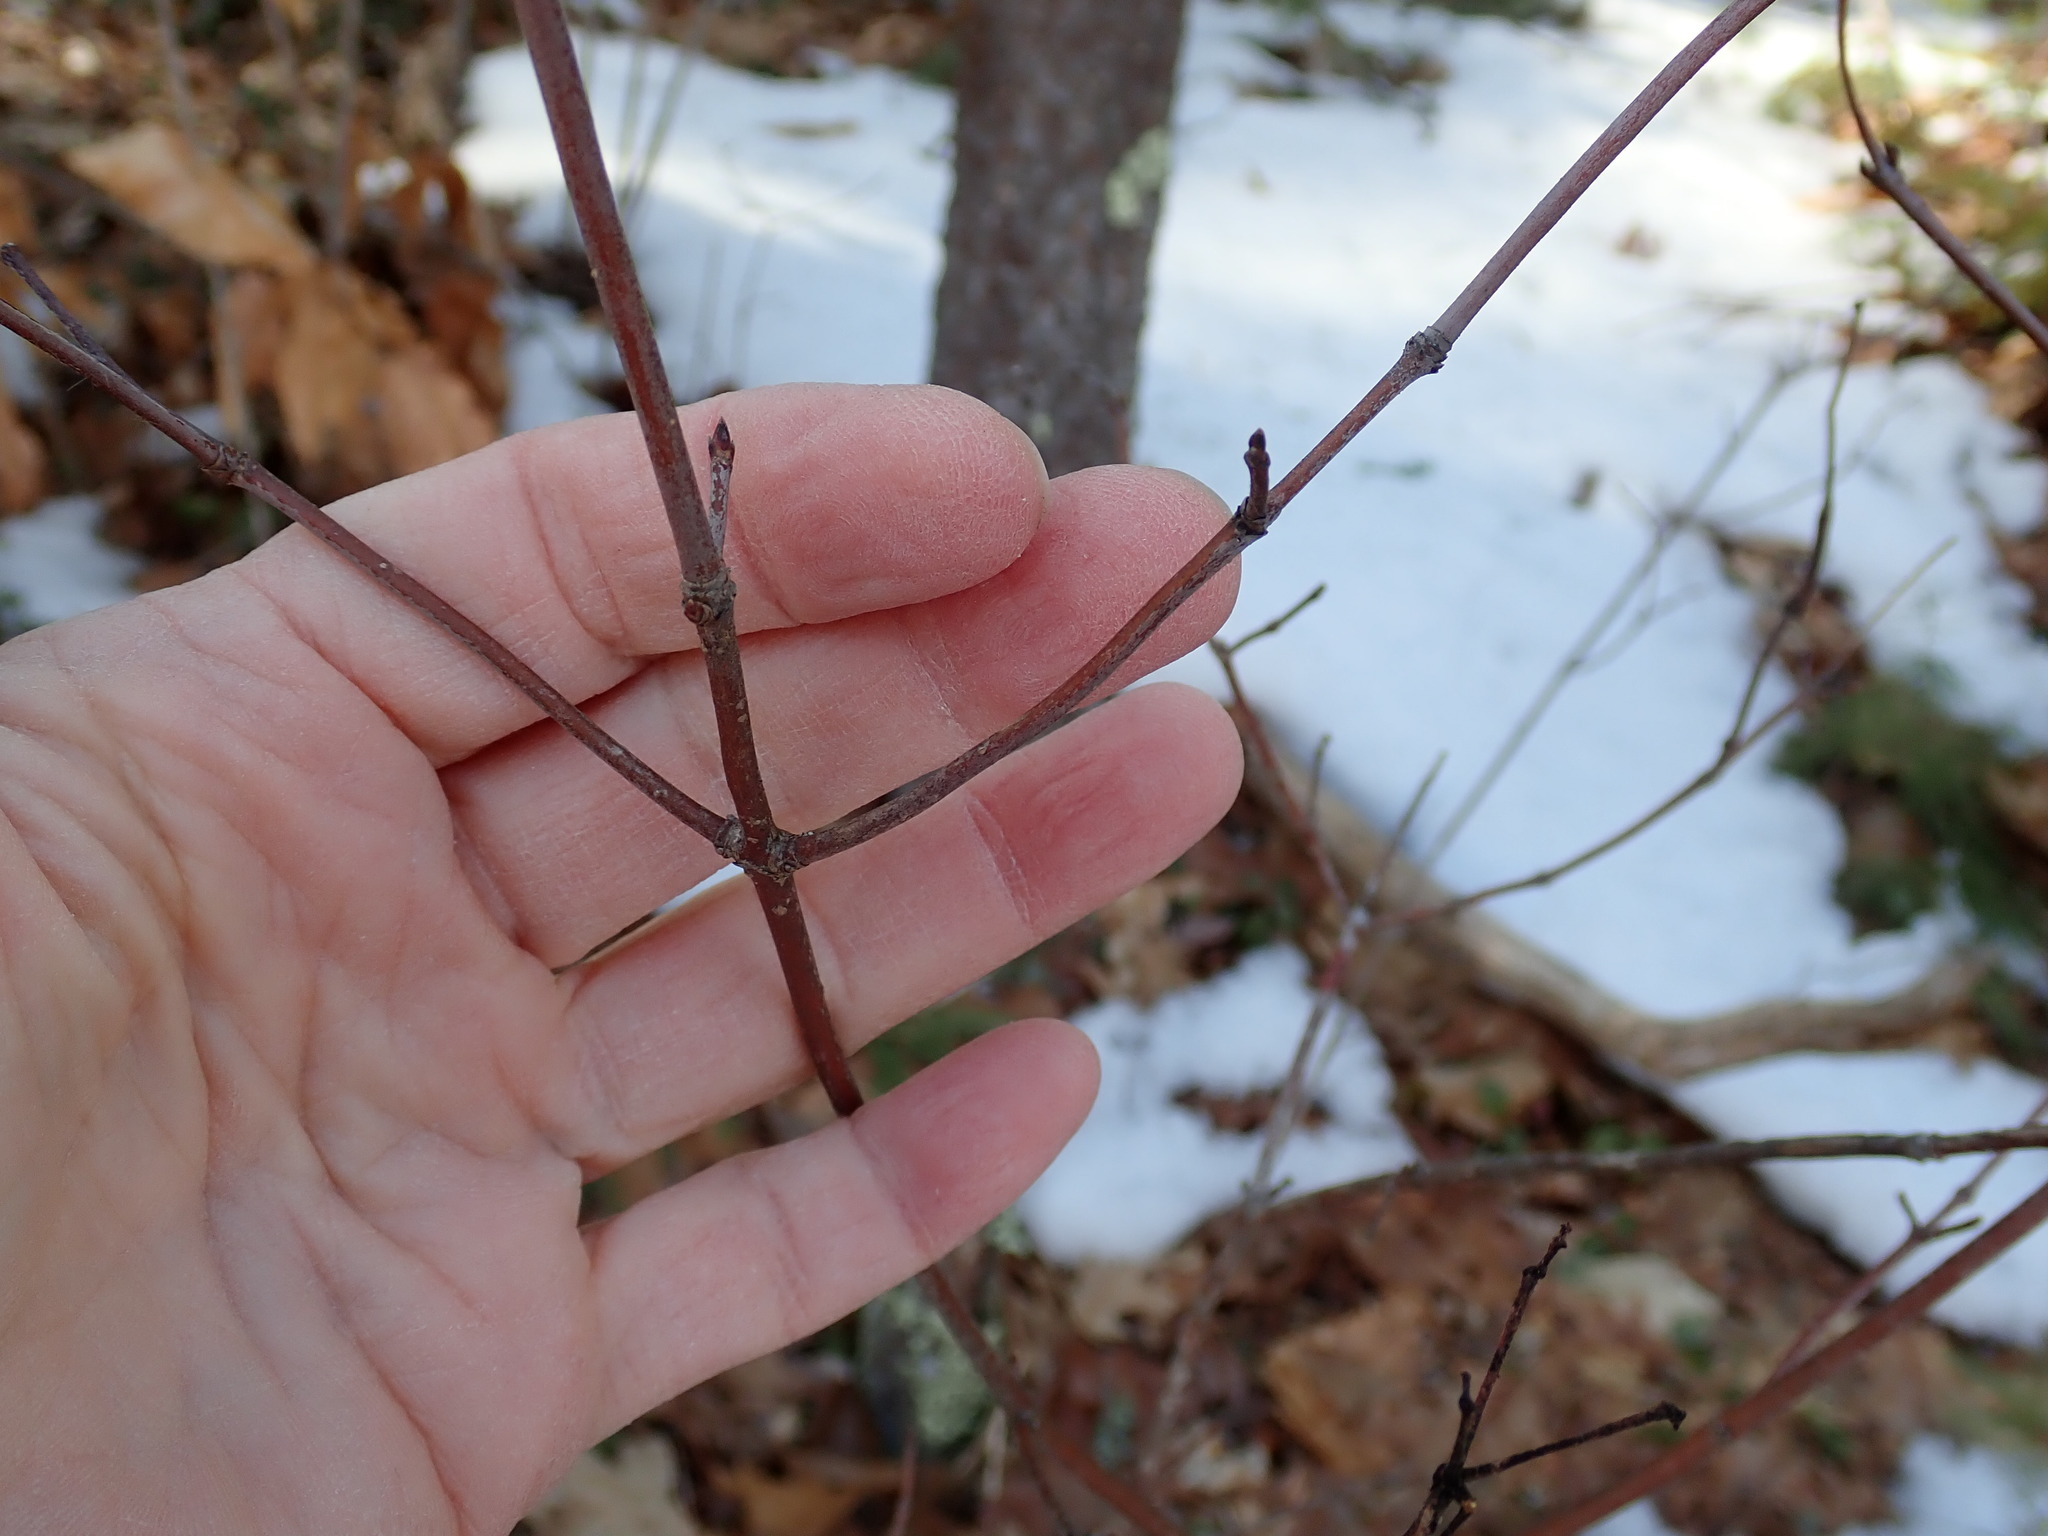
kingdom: Plantae
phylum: Tracheophyta
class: Magnoliopsida
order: Dipsacales
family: Viburnaceae
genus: Viburnum
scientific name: Viburnum acerifolium
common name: Dockmackie
